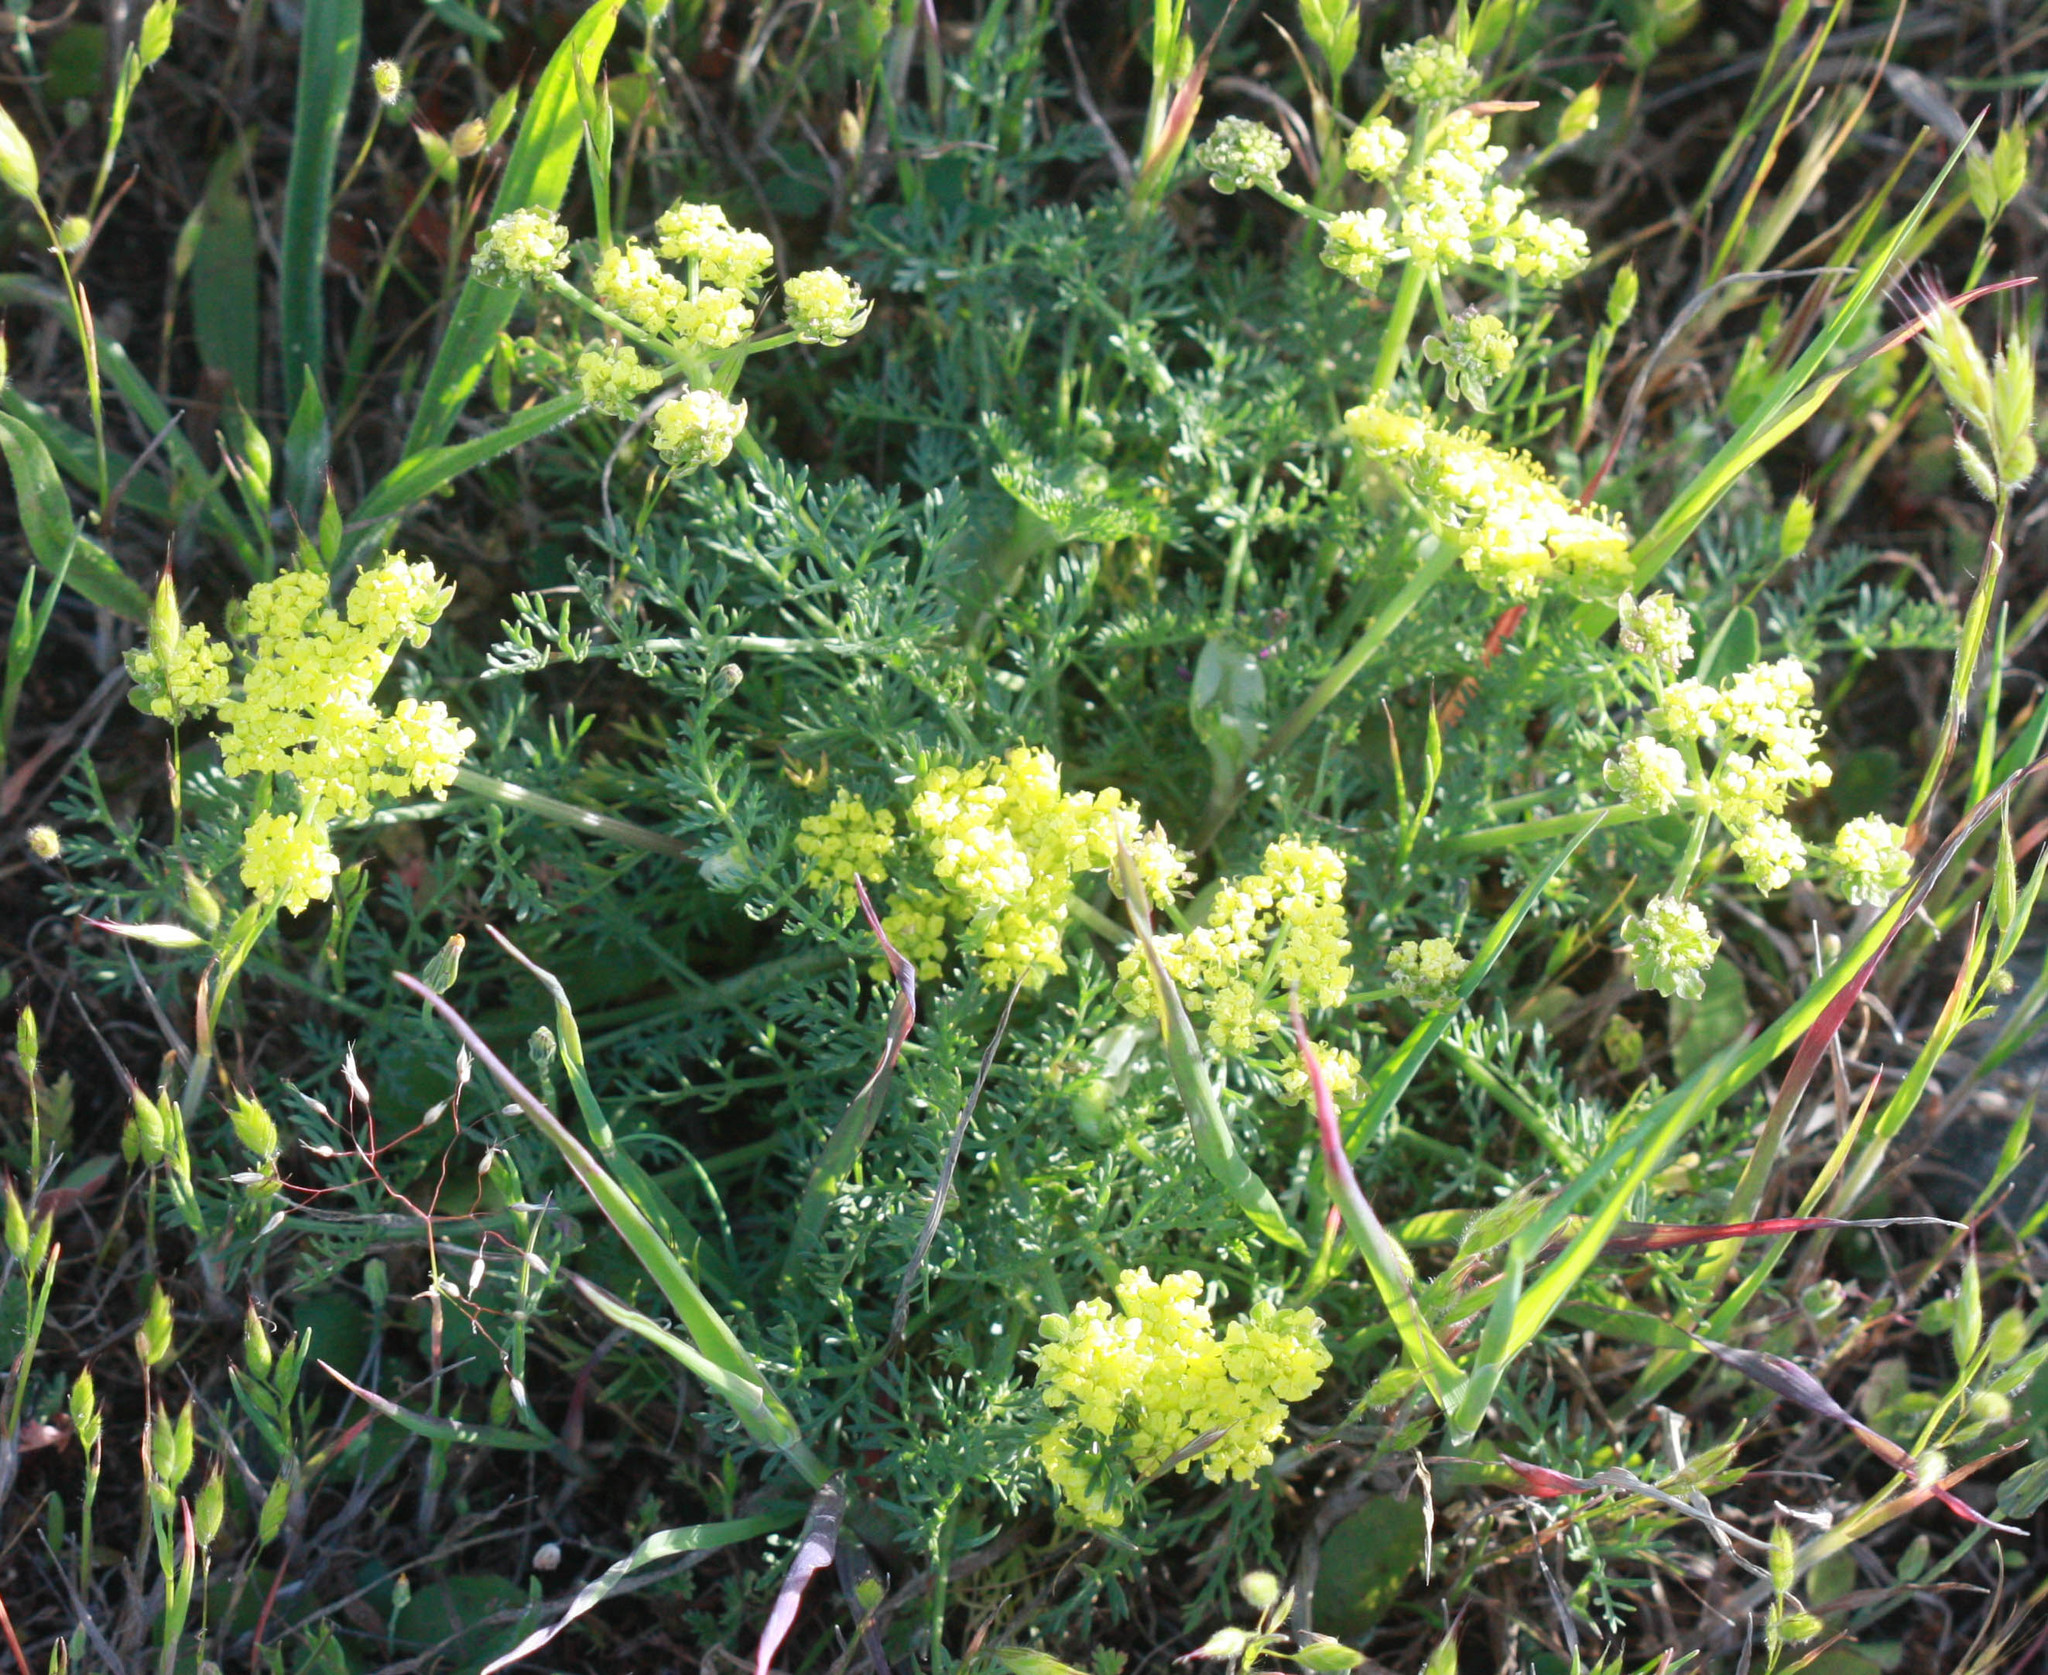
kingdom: Plantae
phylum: Tracheophyta
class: Magnoliopsida
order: Apiales
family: Apiaceae
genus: Lomatium
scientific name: Lomatium utriculatum
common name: Fine-leaf desert-parsley
